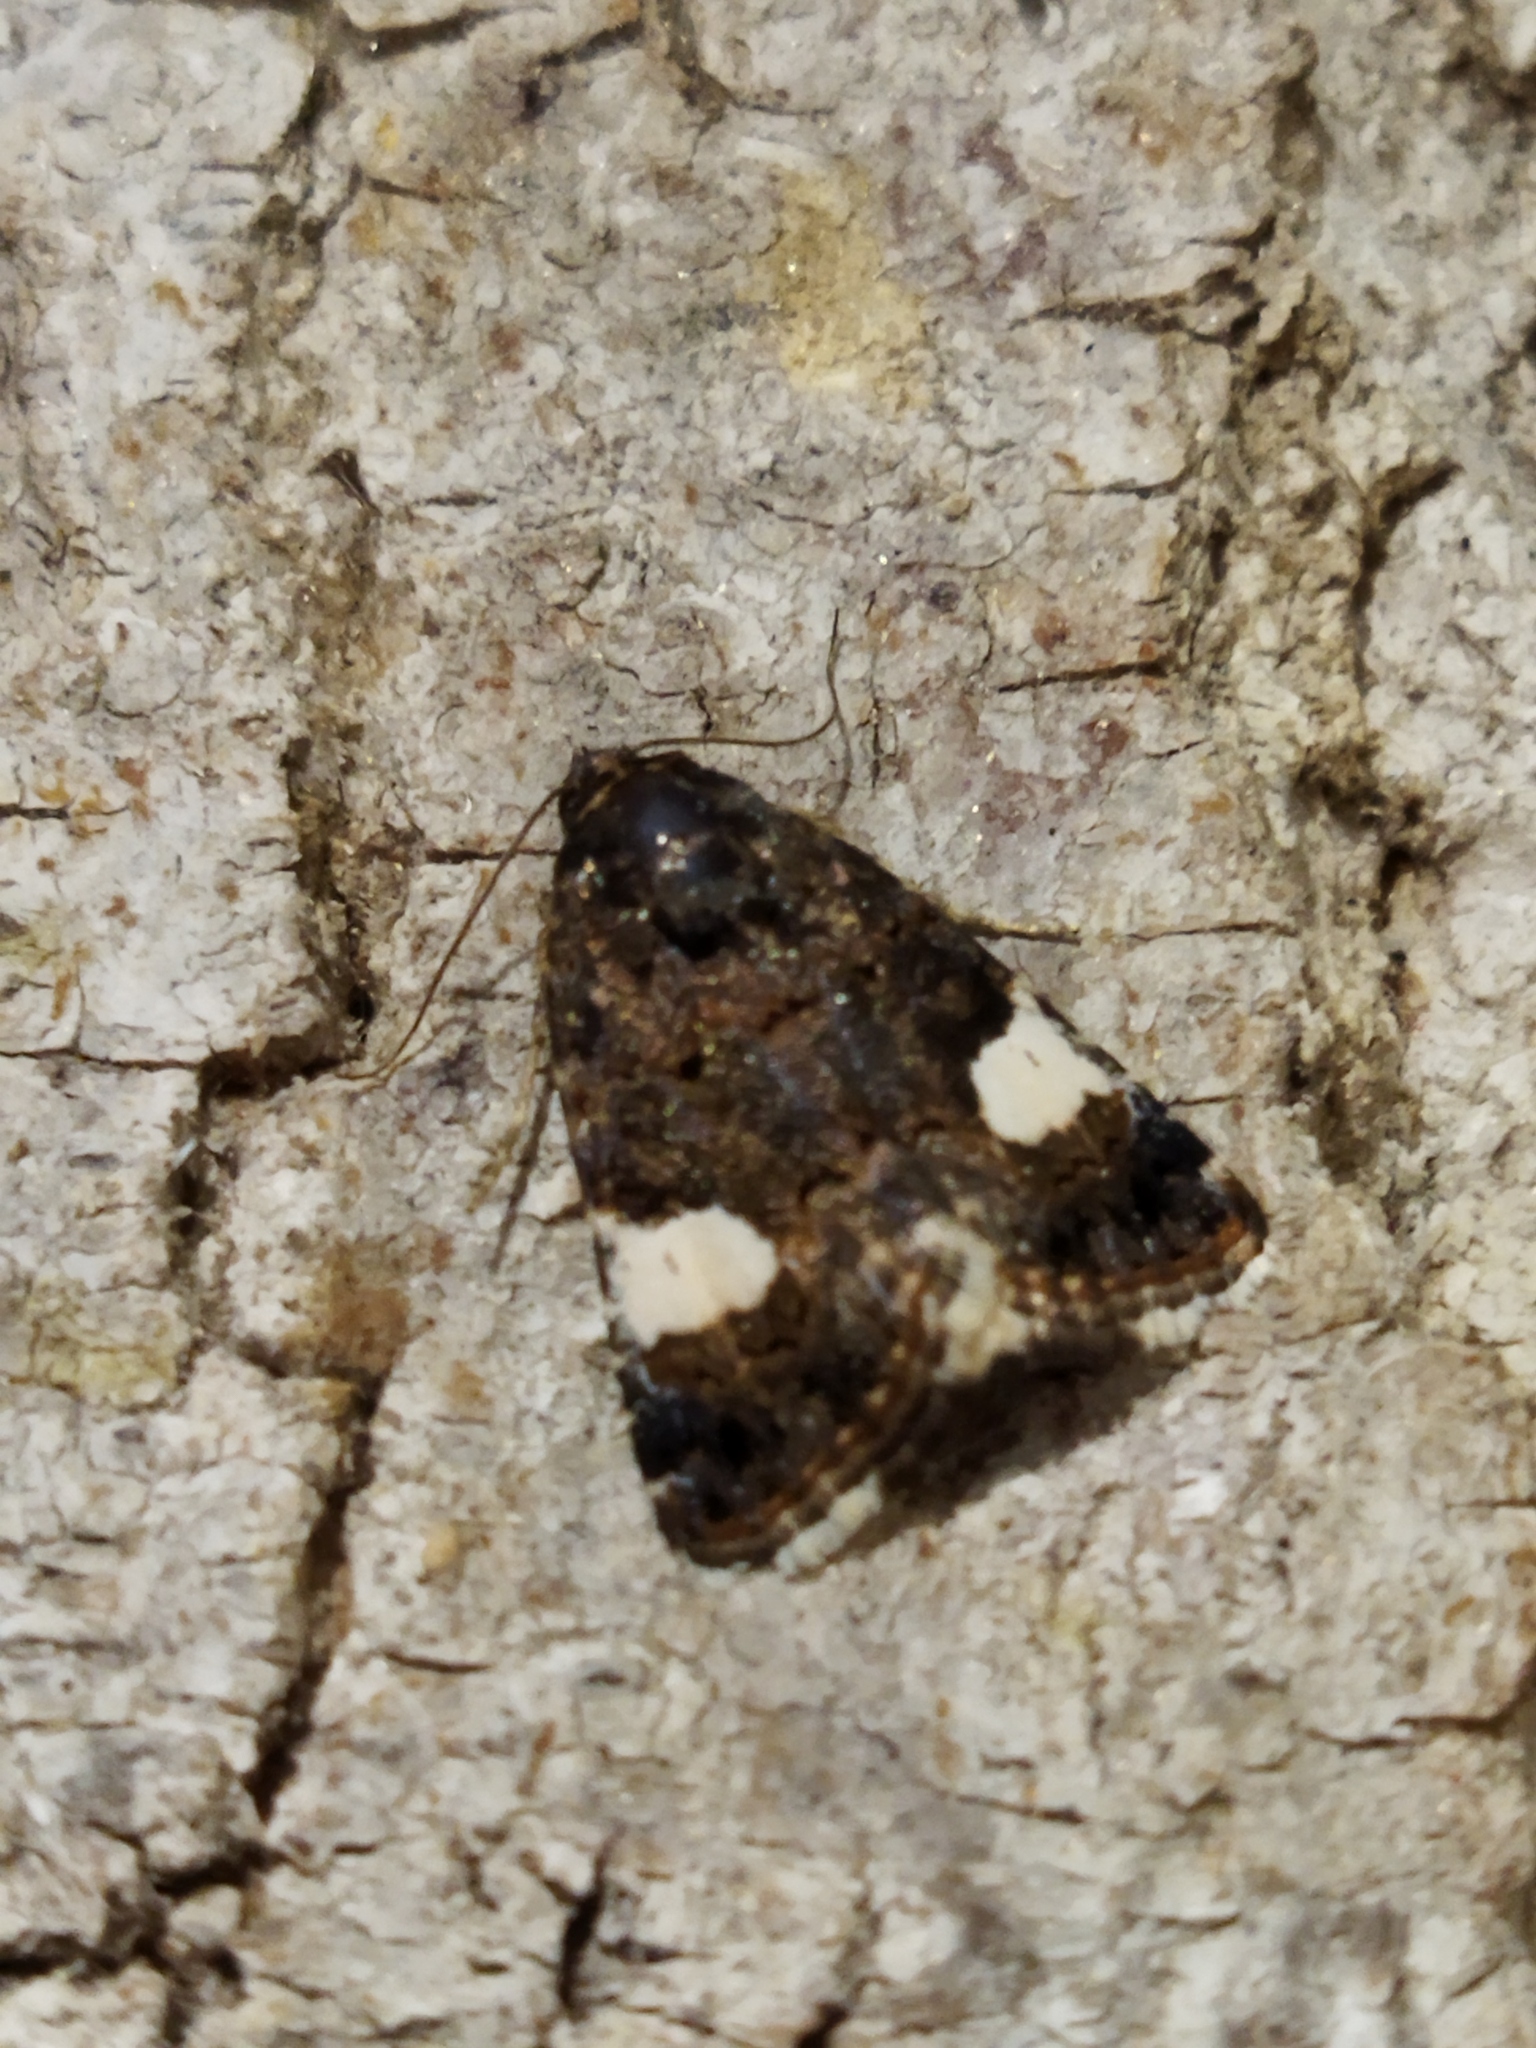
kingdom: Animalia
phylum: Arthropoda
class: Insecta
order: Lepidoptera
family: Erebidae
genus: Tyta
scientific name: Tyta luctuosa
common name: Four-spotted
